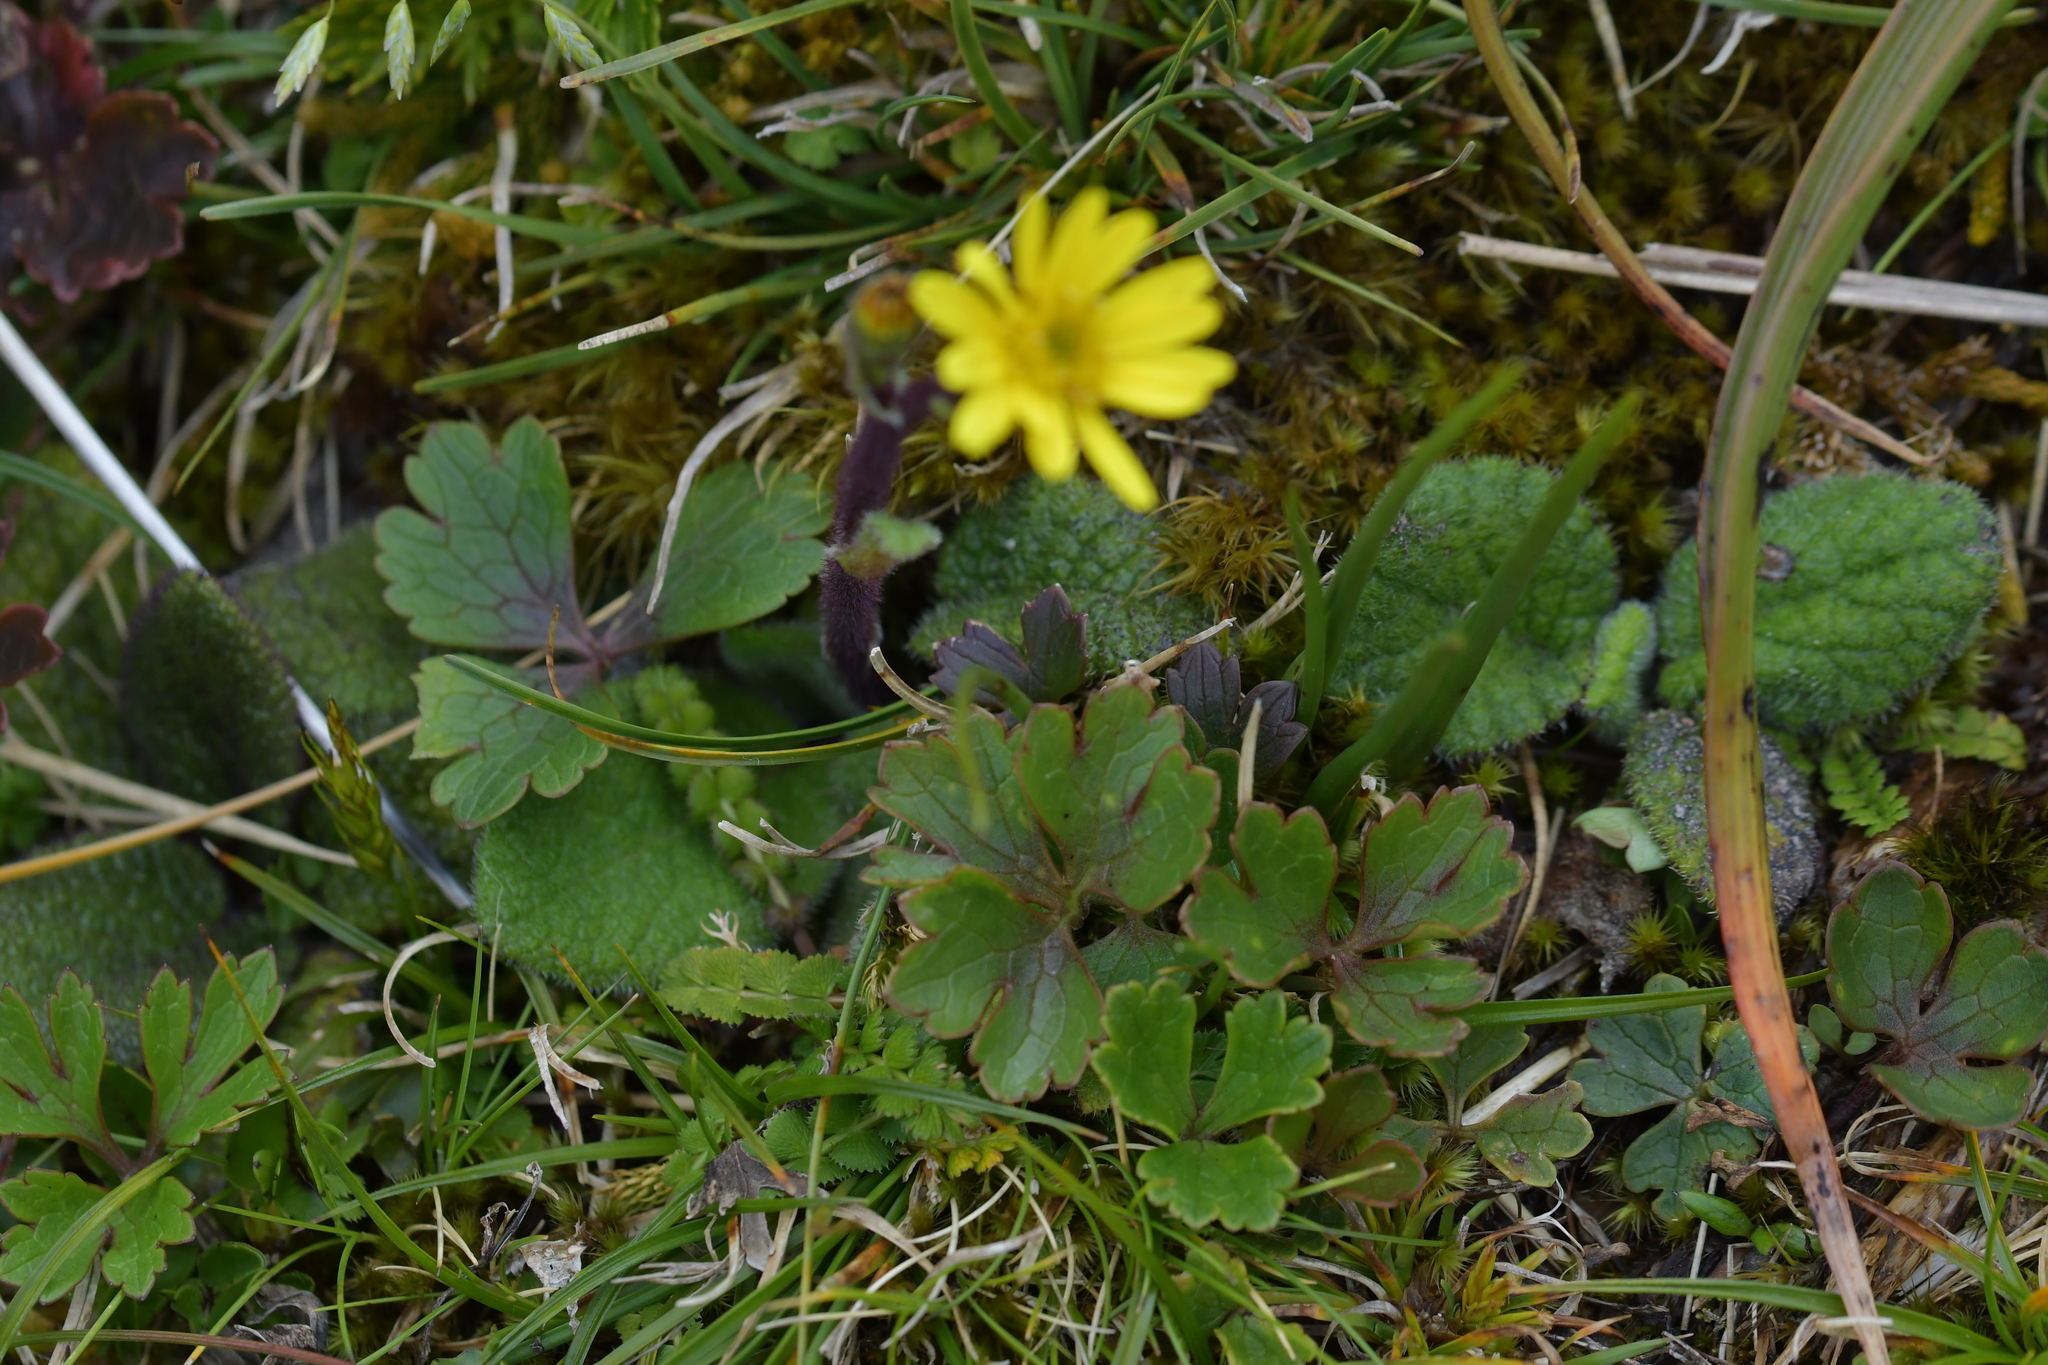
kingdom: Plantae
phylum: Tracheophyta
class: Magnoliopsida
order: Asterales
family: Asteraceae
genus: Brachyglottis
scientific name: Brachyglottis lagopus
